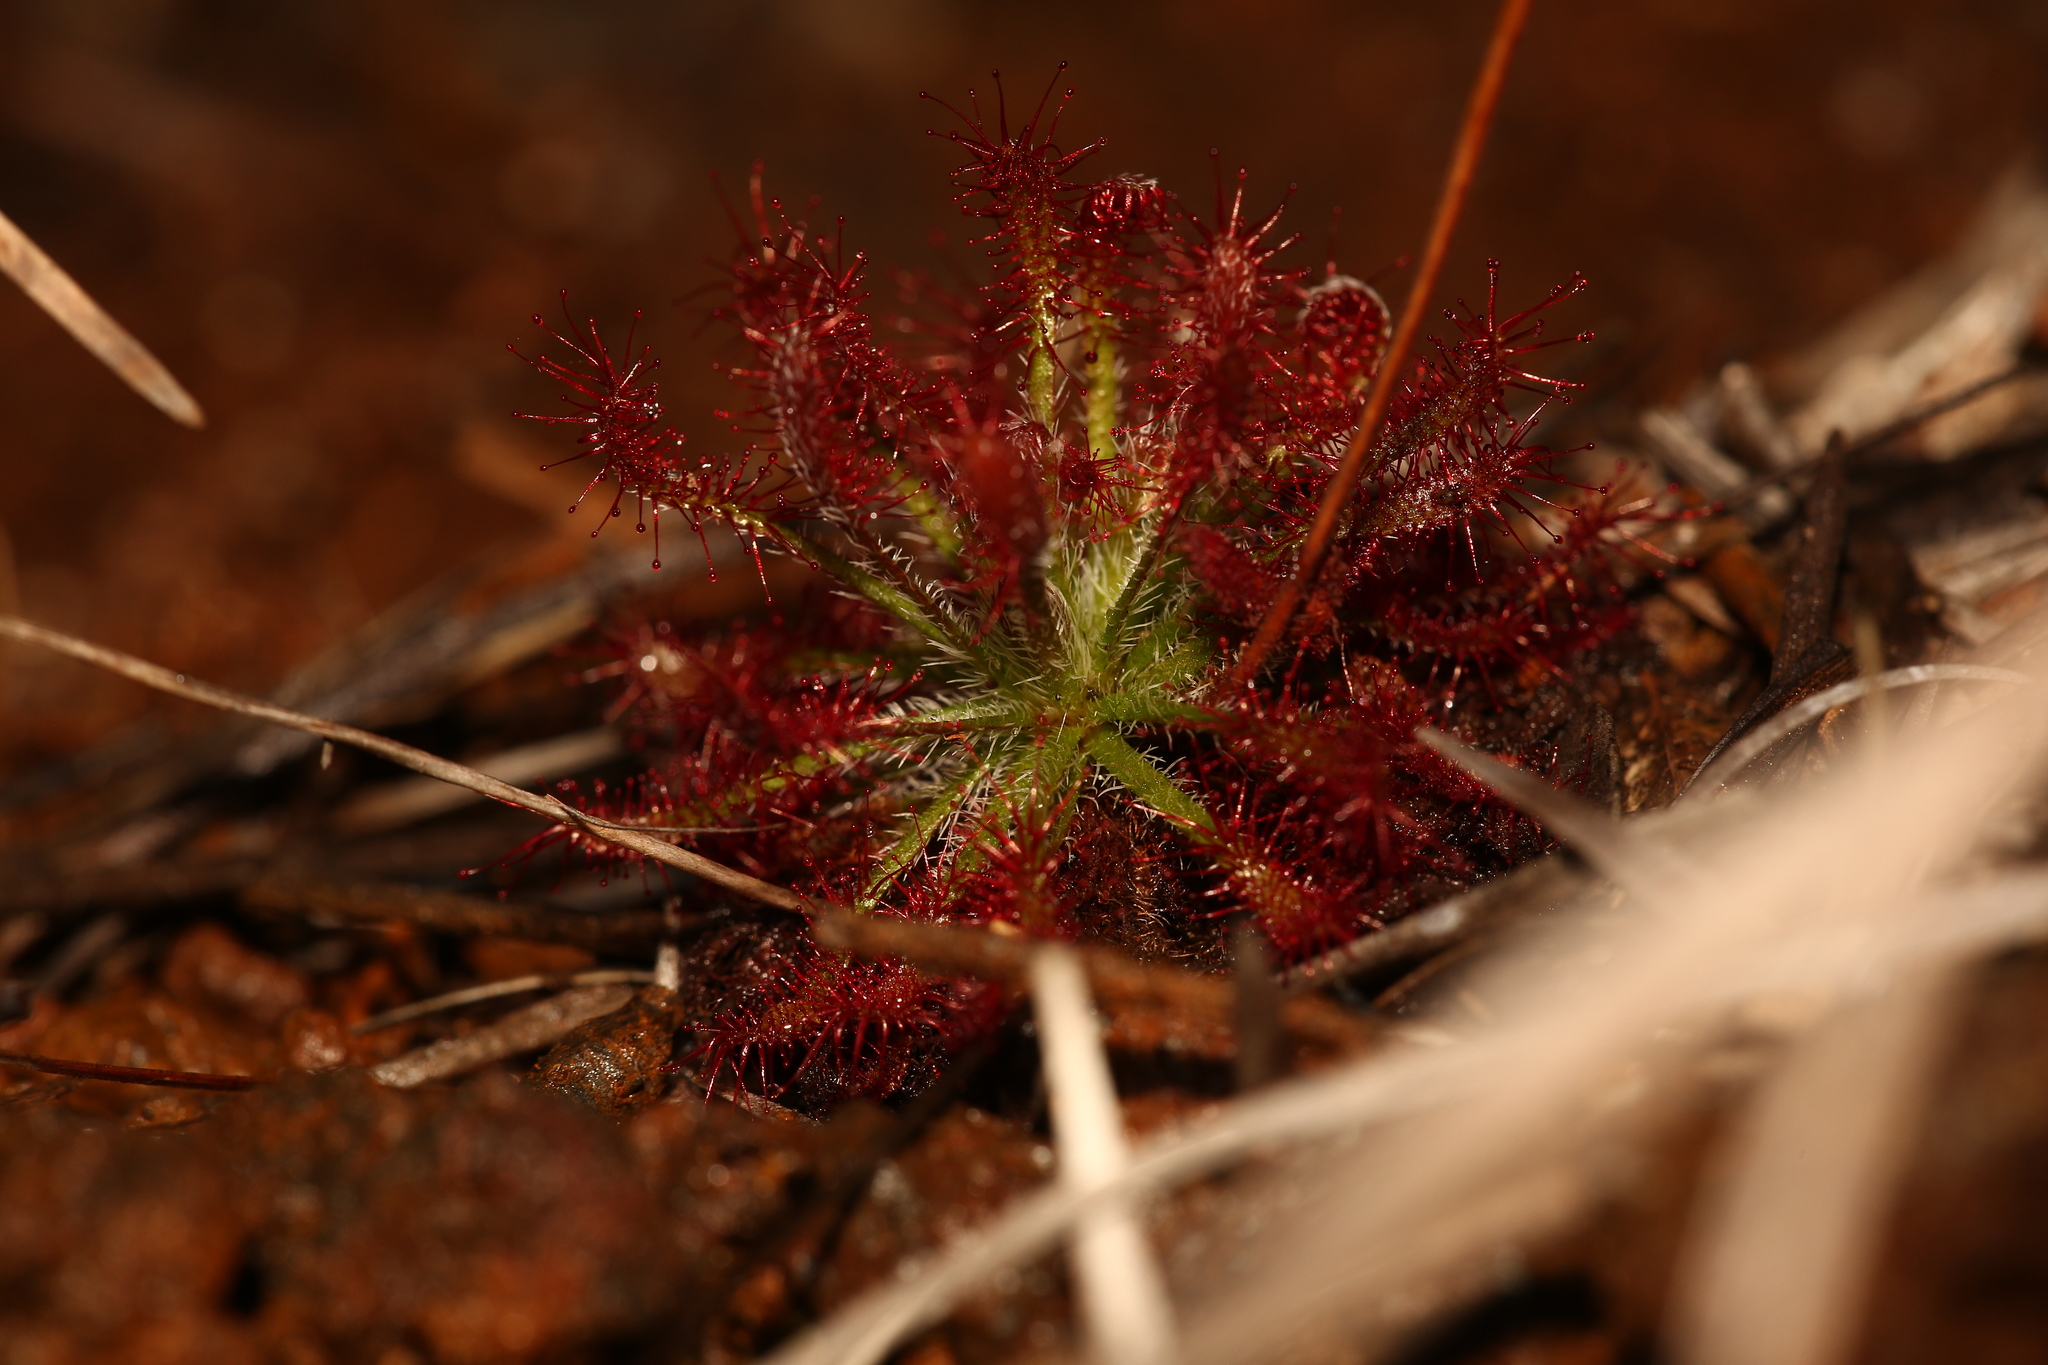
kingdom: Plantae
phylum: Tracheophyta
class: Magnoliopsida
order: Caryophyllales
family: Droseraceae
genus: Drosera
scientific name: Drosera neocaledonica
